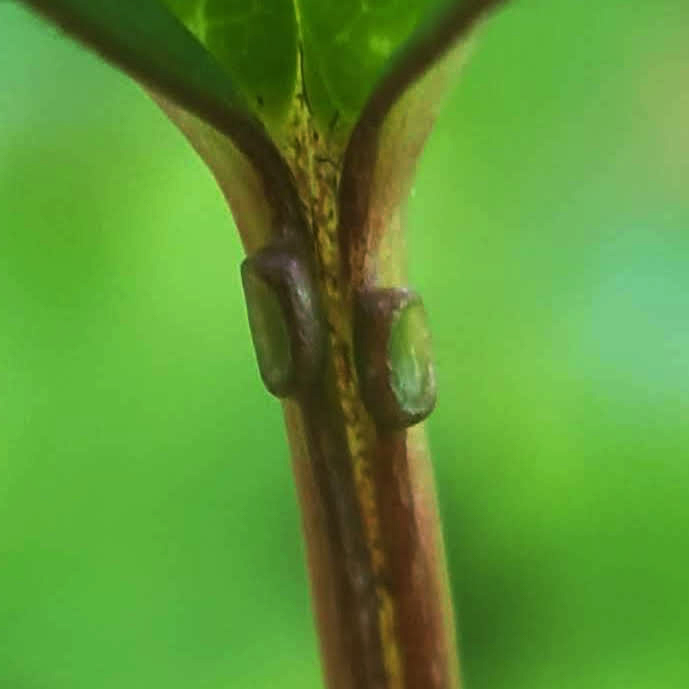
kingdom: Plantae
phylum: Tracheophyta
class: Magnoliopsida
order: Dipsacales
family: Viburnaceae
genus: Viburnum
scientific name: Viburnum opulus
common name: Guelder-rose
